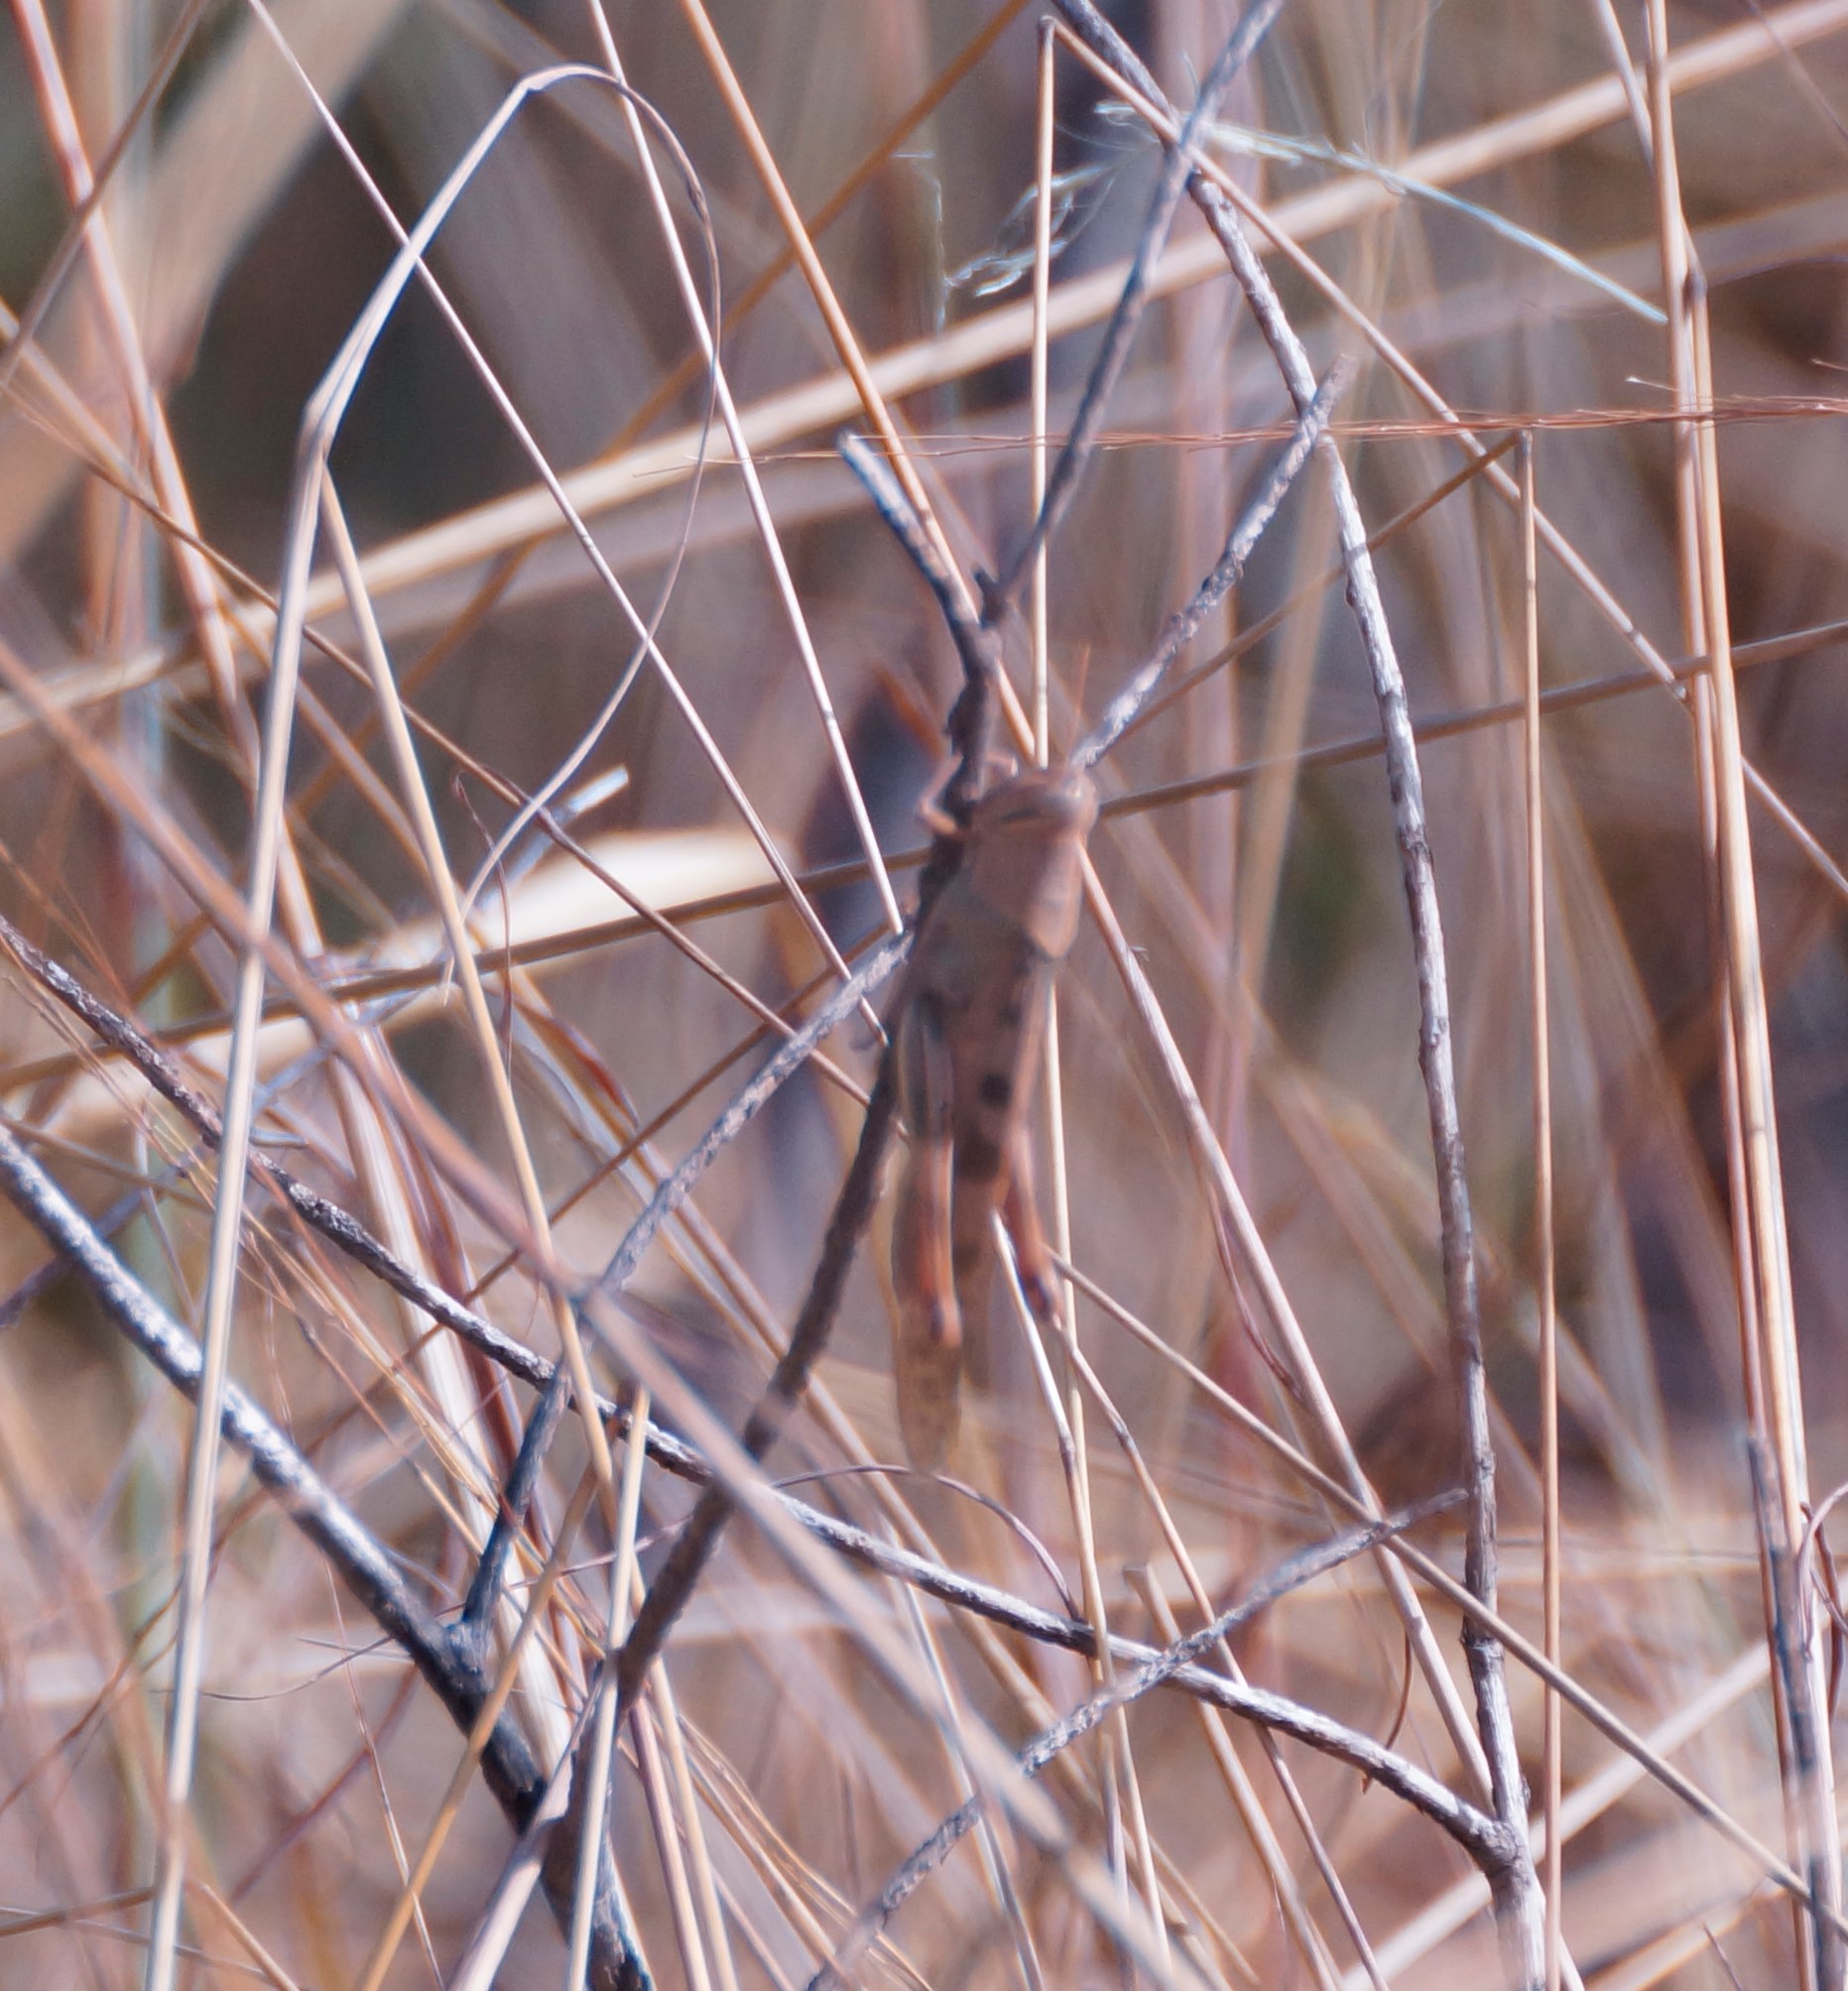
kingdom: Animalia
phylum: Arthropoda
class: Insecta
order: Orthoptera
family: Acrididae
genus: Austracris
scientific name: Austracris basalis
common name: Spotted spur-throated locust
